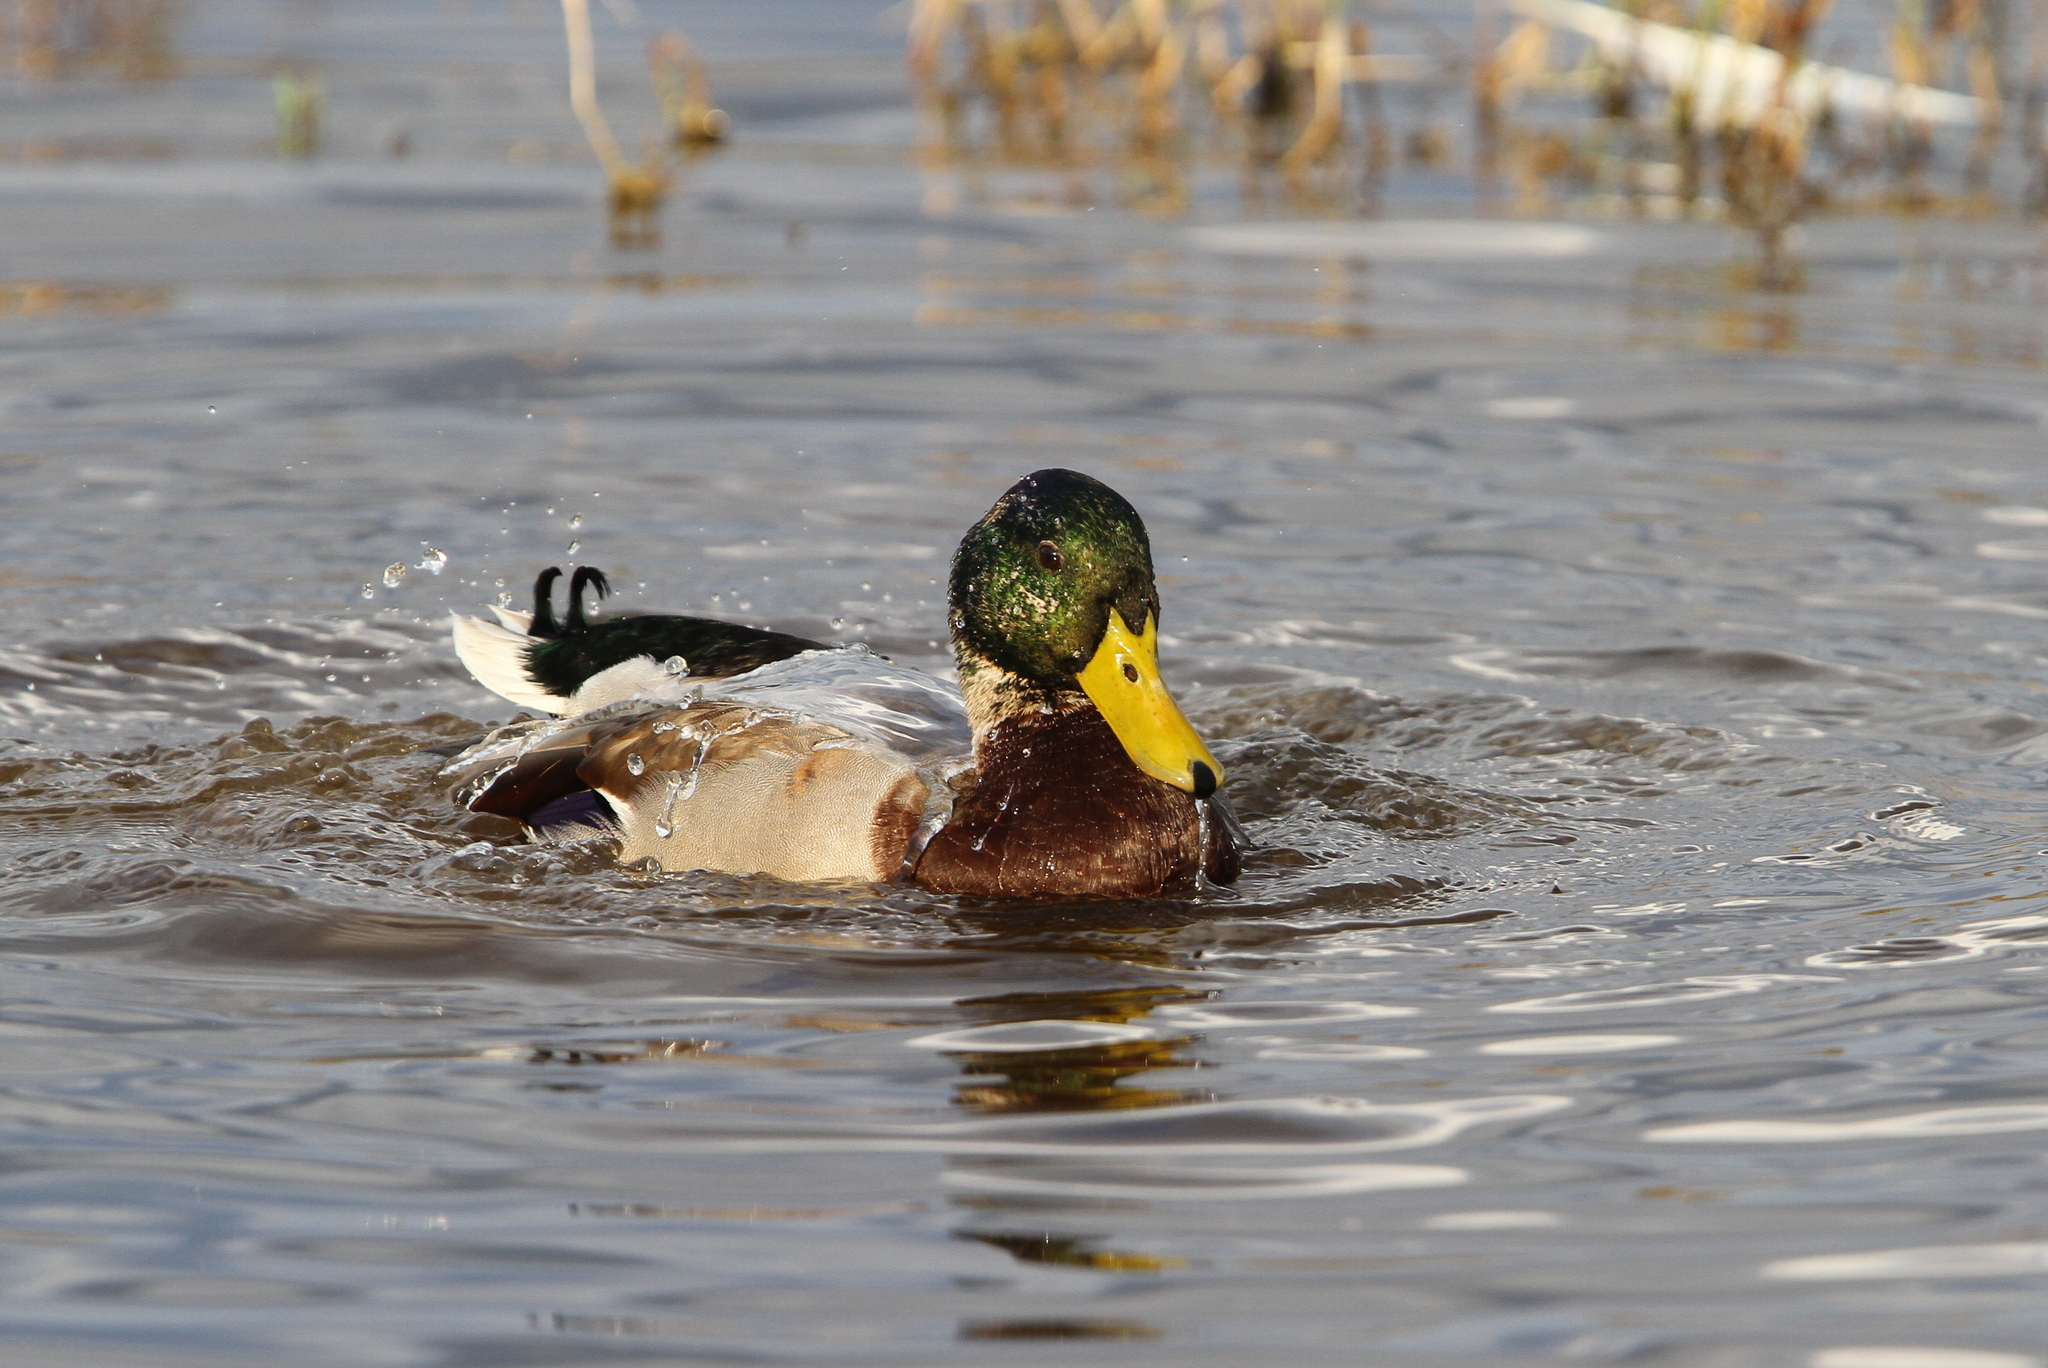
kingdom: Animalia
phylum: Chordata
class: Aves
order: Anseriformes
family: Anatidae
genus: Anas
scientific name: Anas platyrhynchos
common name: Mallard
